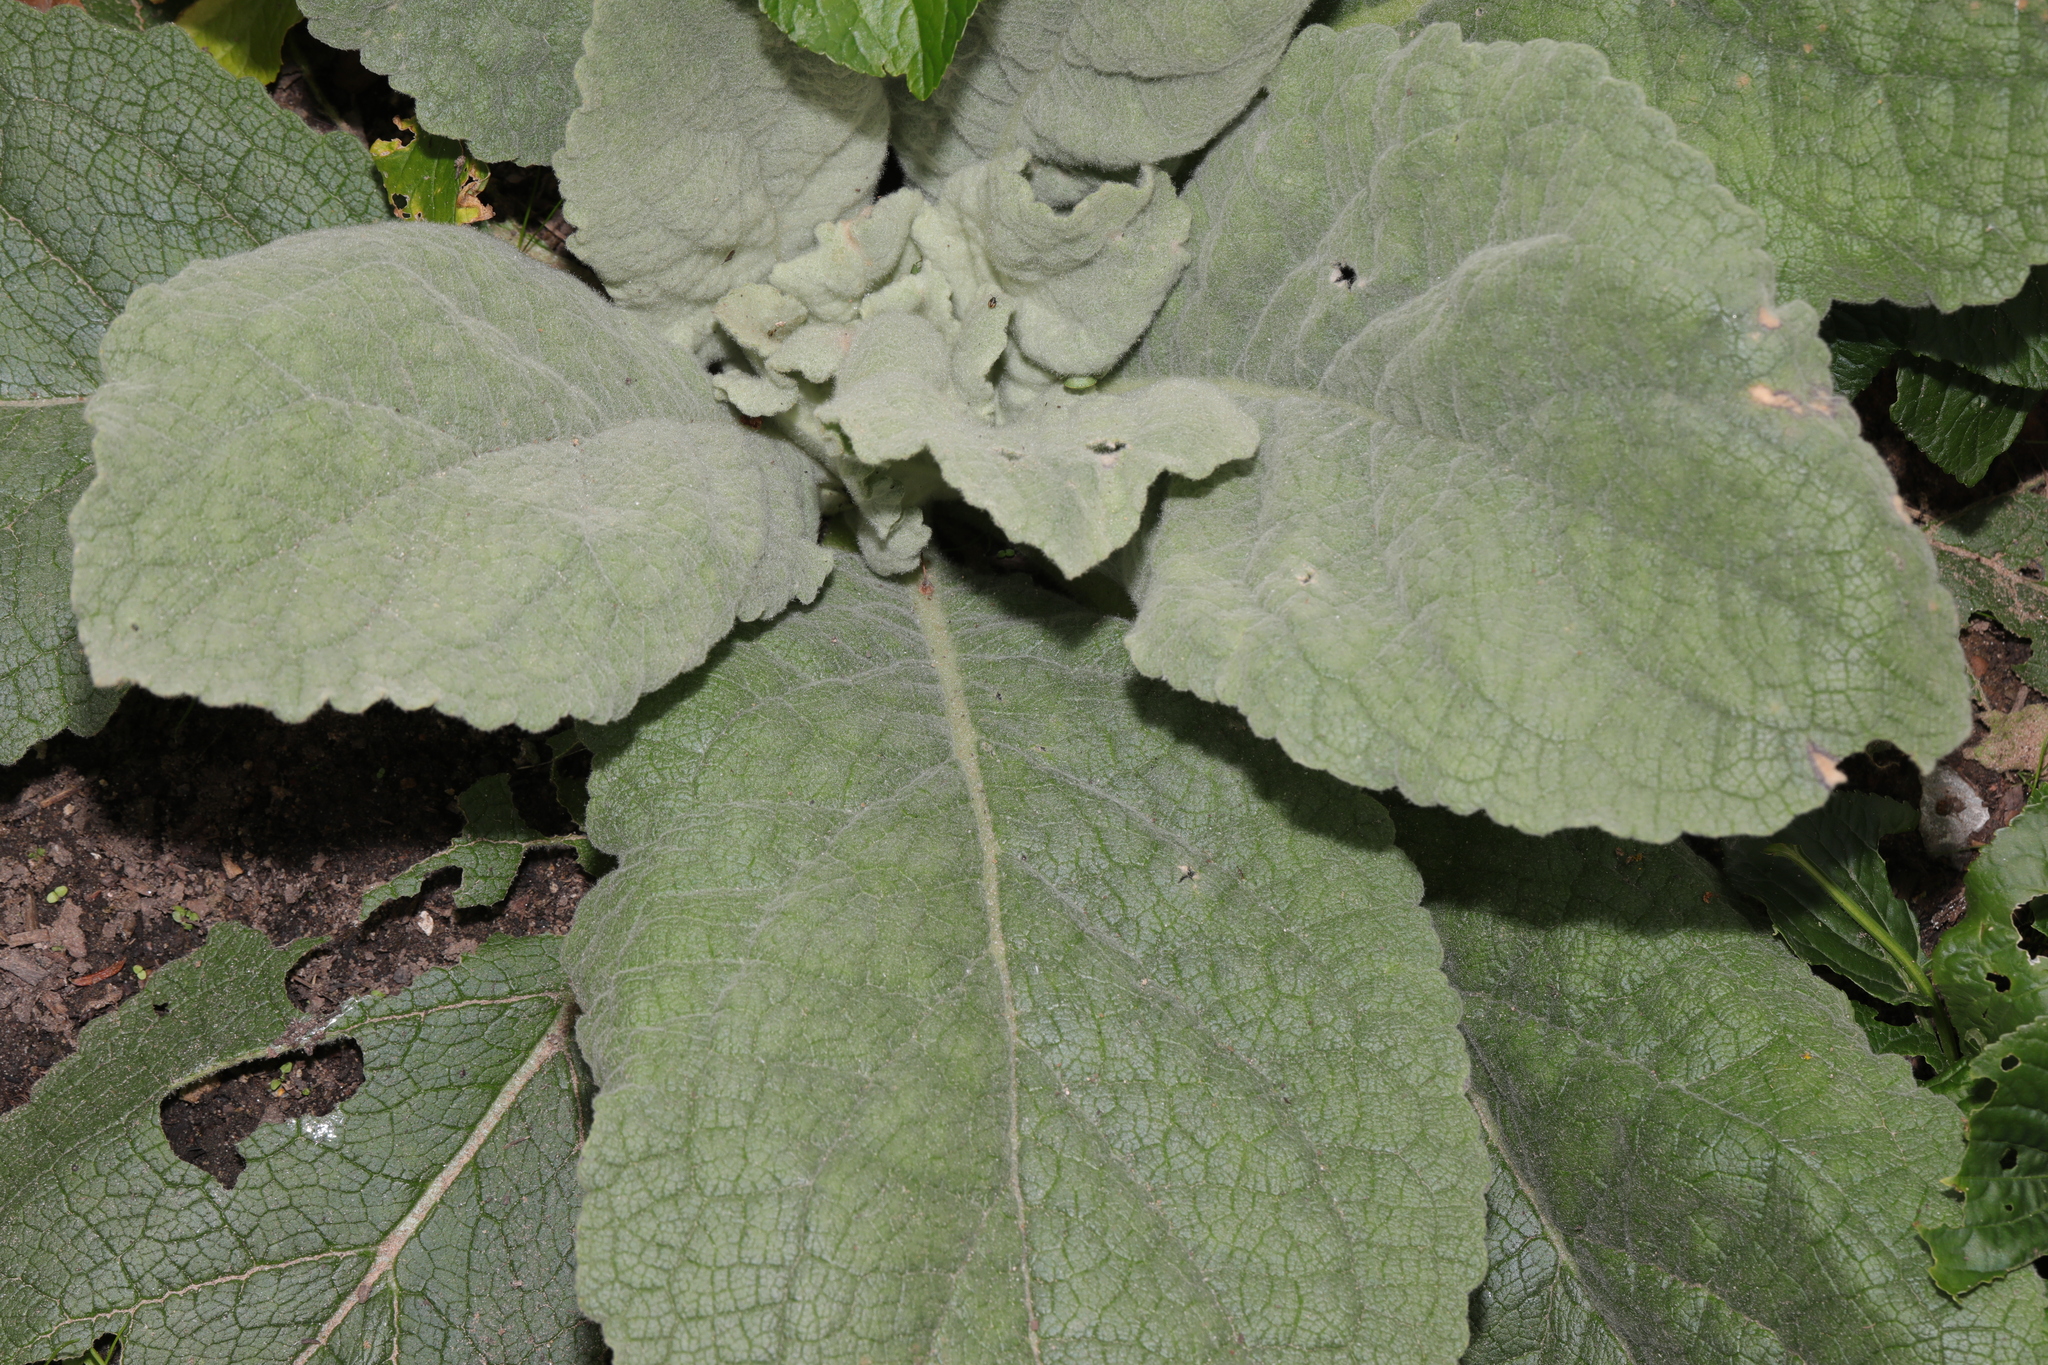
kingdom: Plantae
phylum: Tracheophyta
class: Magnoliopsida
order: Lamiales
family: Scrophulariaceae
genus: Verbascum
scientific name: Verbascum thapsus
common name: Common mullein
